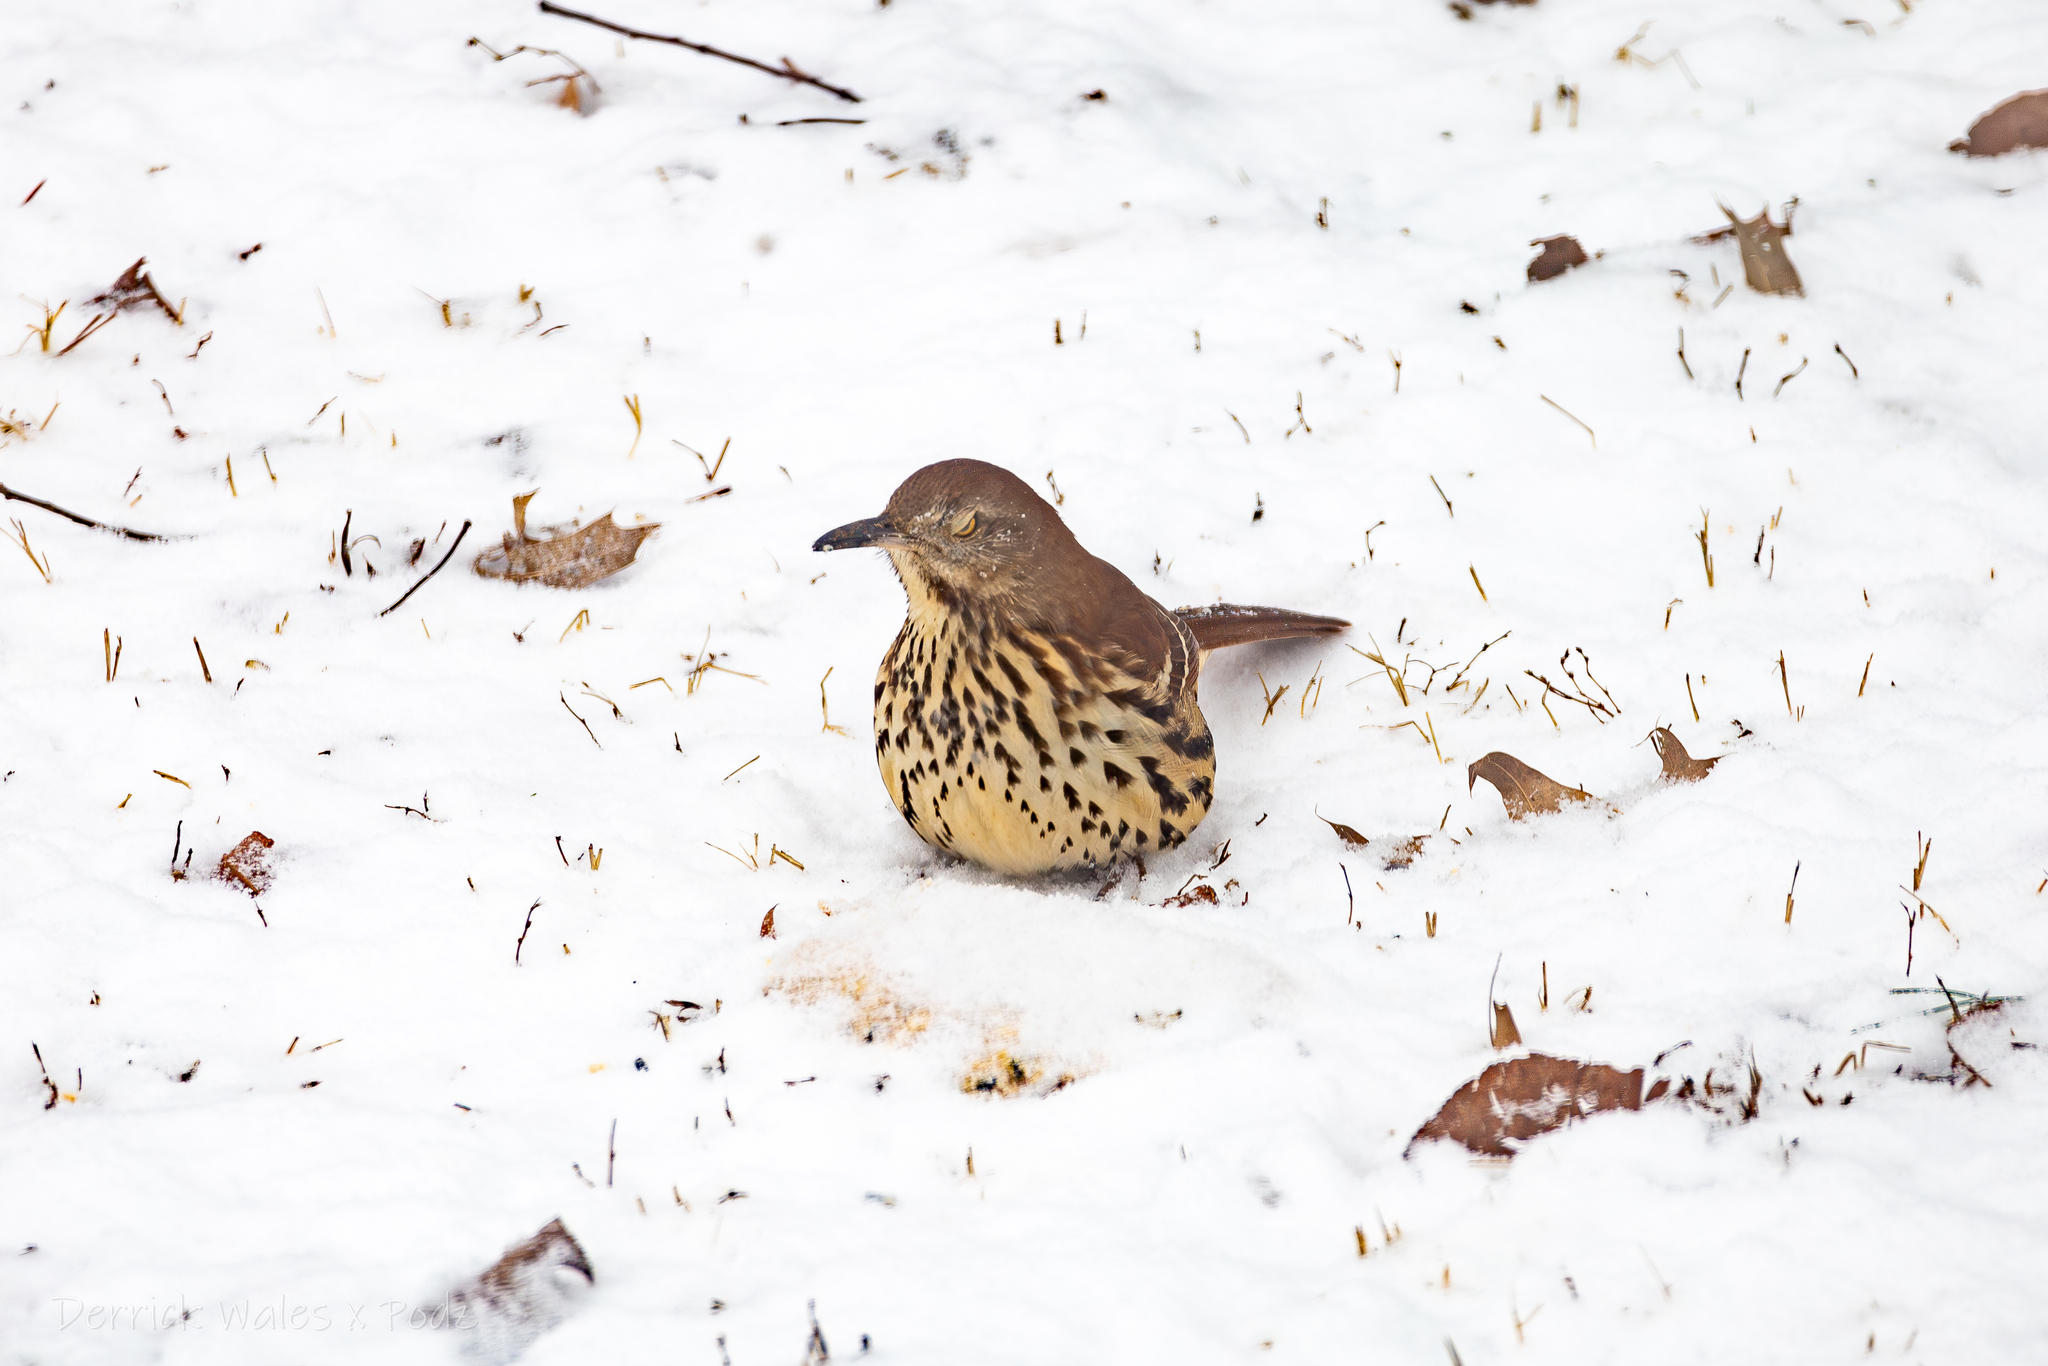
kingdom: Animalia
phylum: Chordata
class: Aves
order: Passeriformes
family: Mimidae
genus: Toxostoma
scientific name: Toxostoma rufum
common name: Brown thrasher
